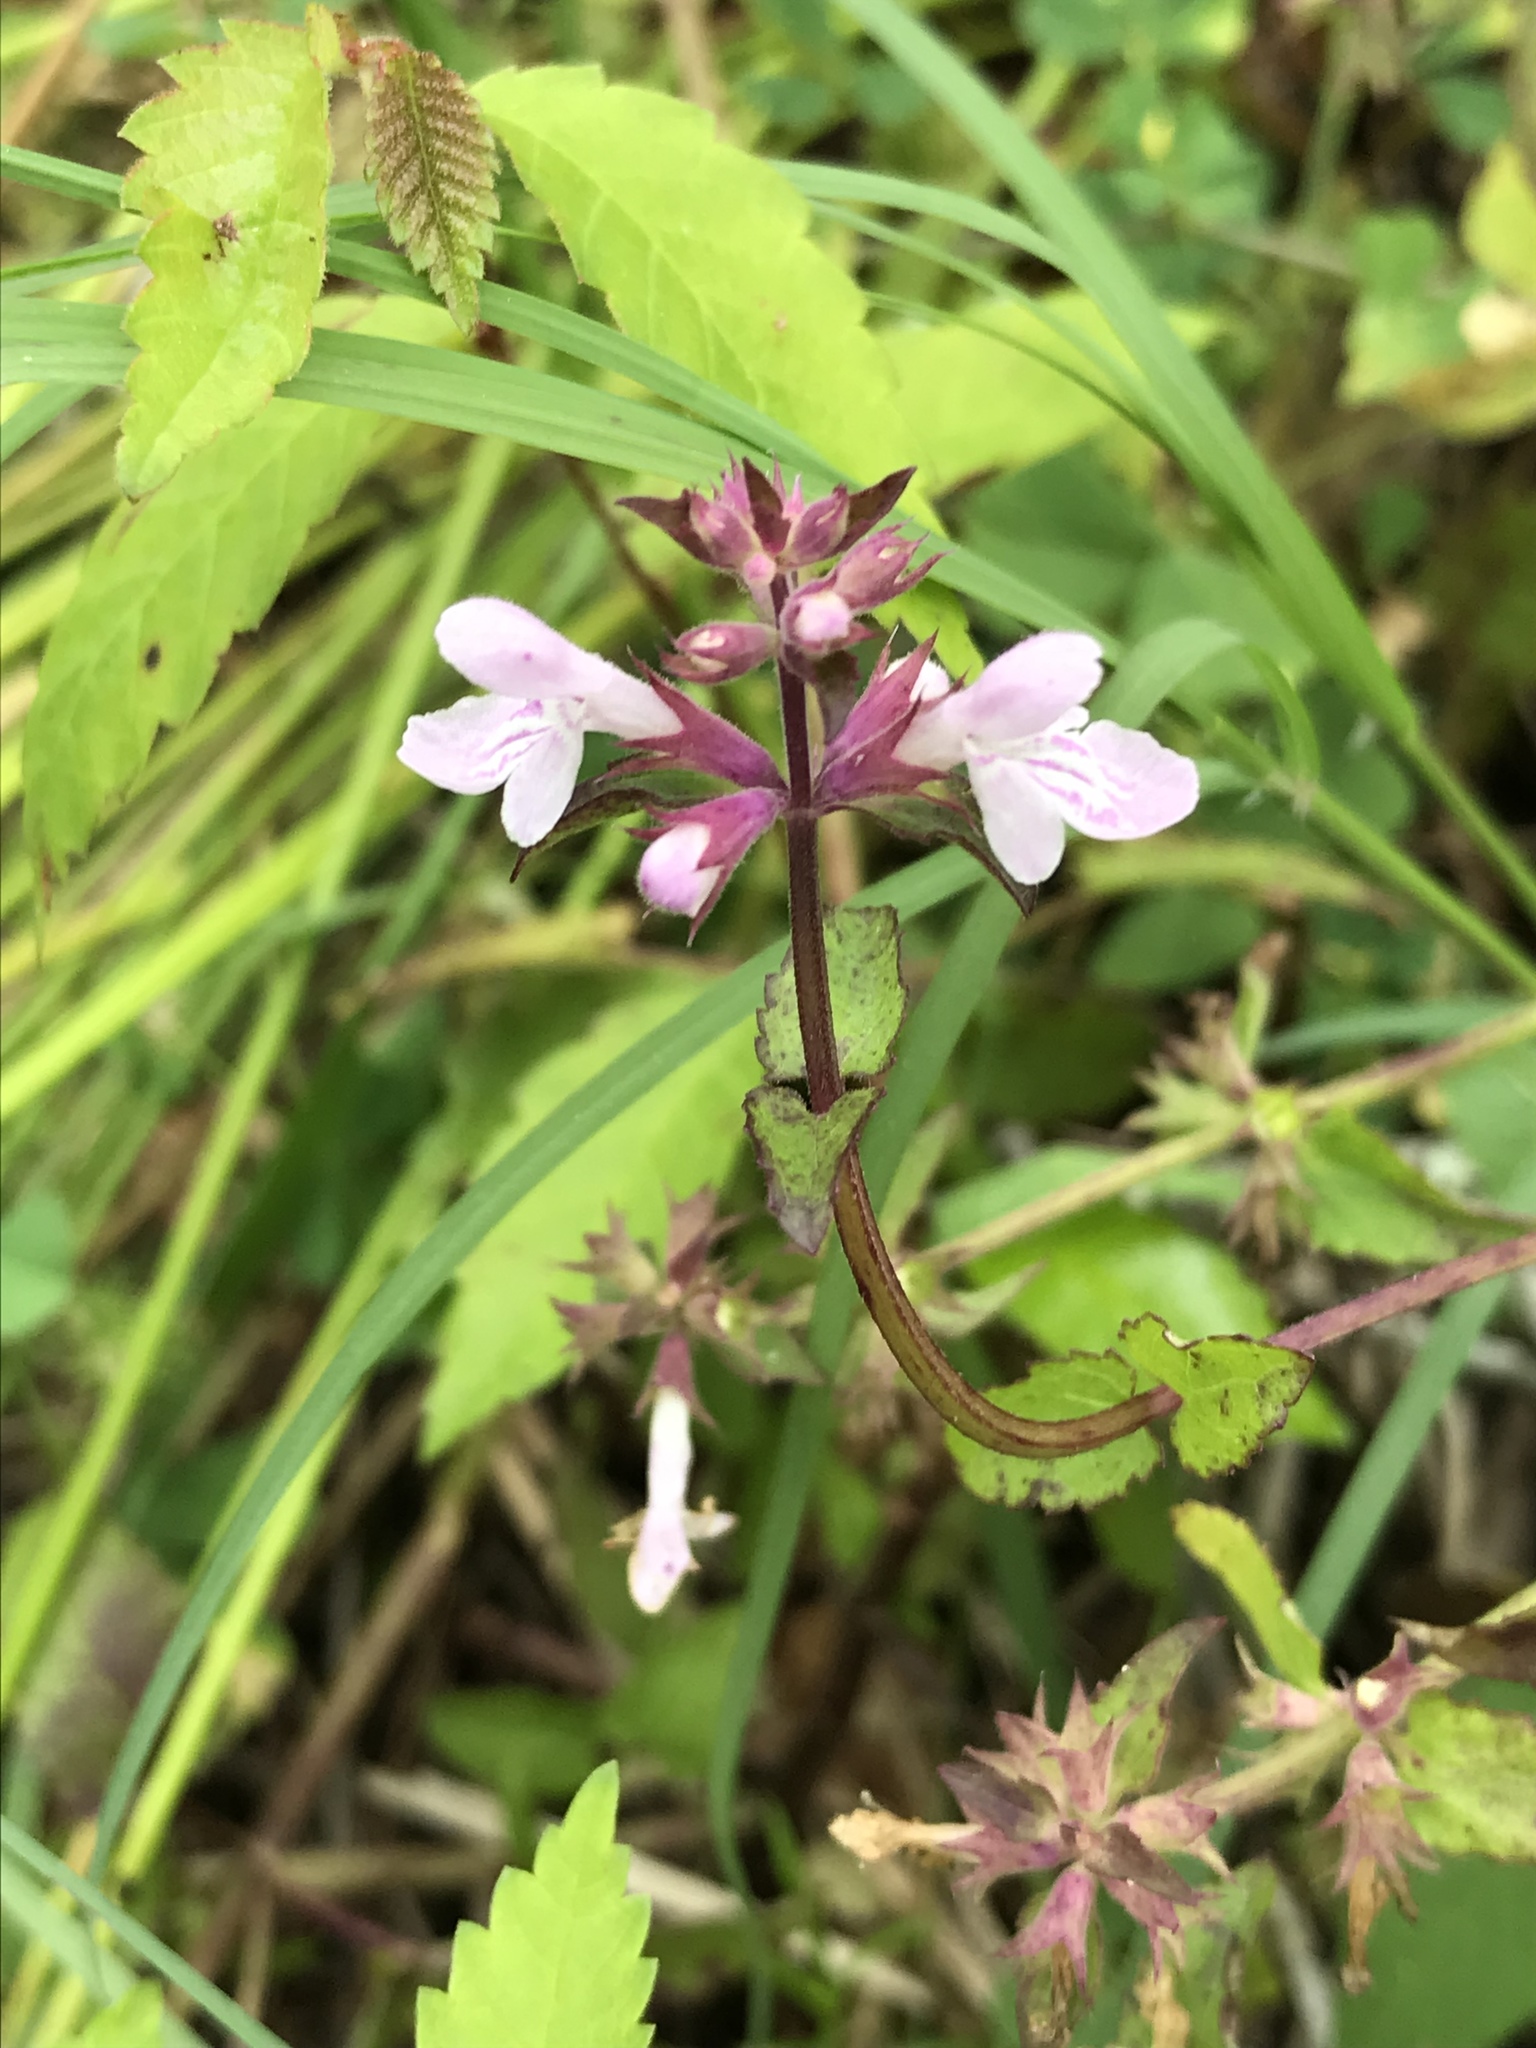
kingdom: Plantae
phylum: Tracheophyta
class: Magnoliopsida
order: Lamiales
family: Lamiaceae
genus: Stachys
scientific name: Stachys floridana
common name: Florida betony
